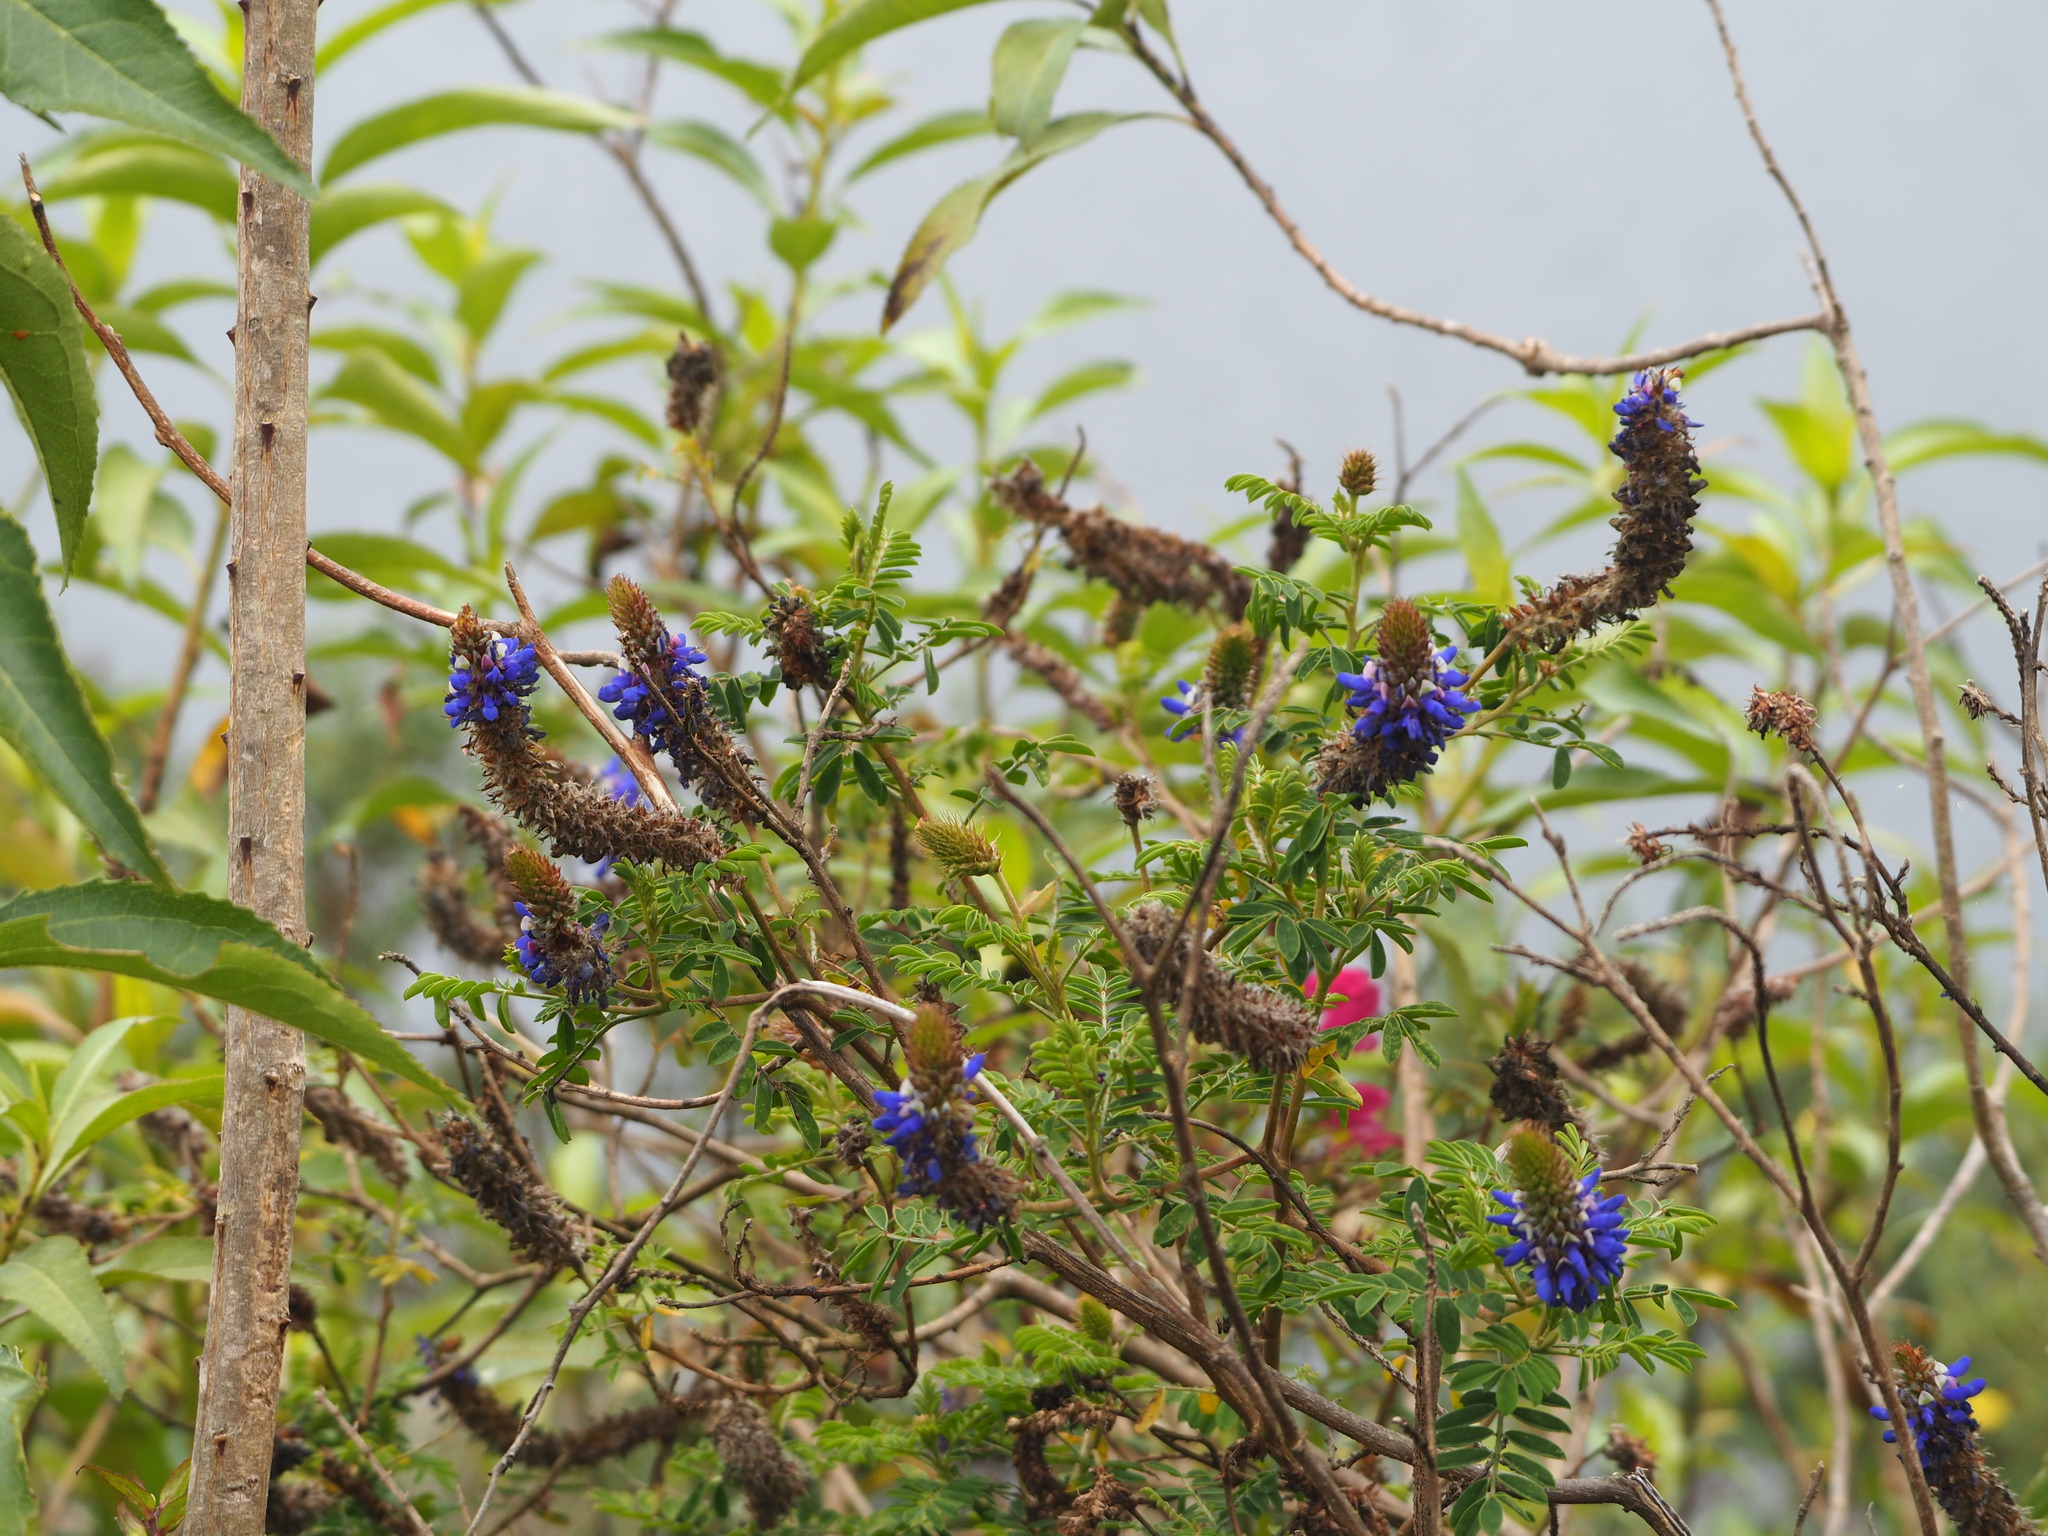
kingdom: Plantae
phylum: Tracheophyta
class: Magnoliopsida
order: Fabales
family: Fabaceae
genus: Dalea
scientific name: Dalea coerulea
